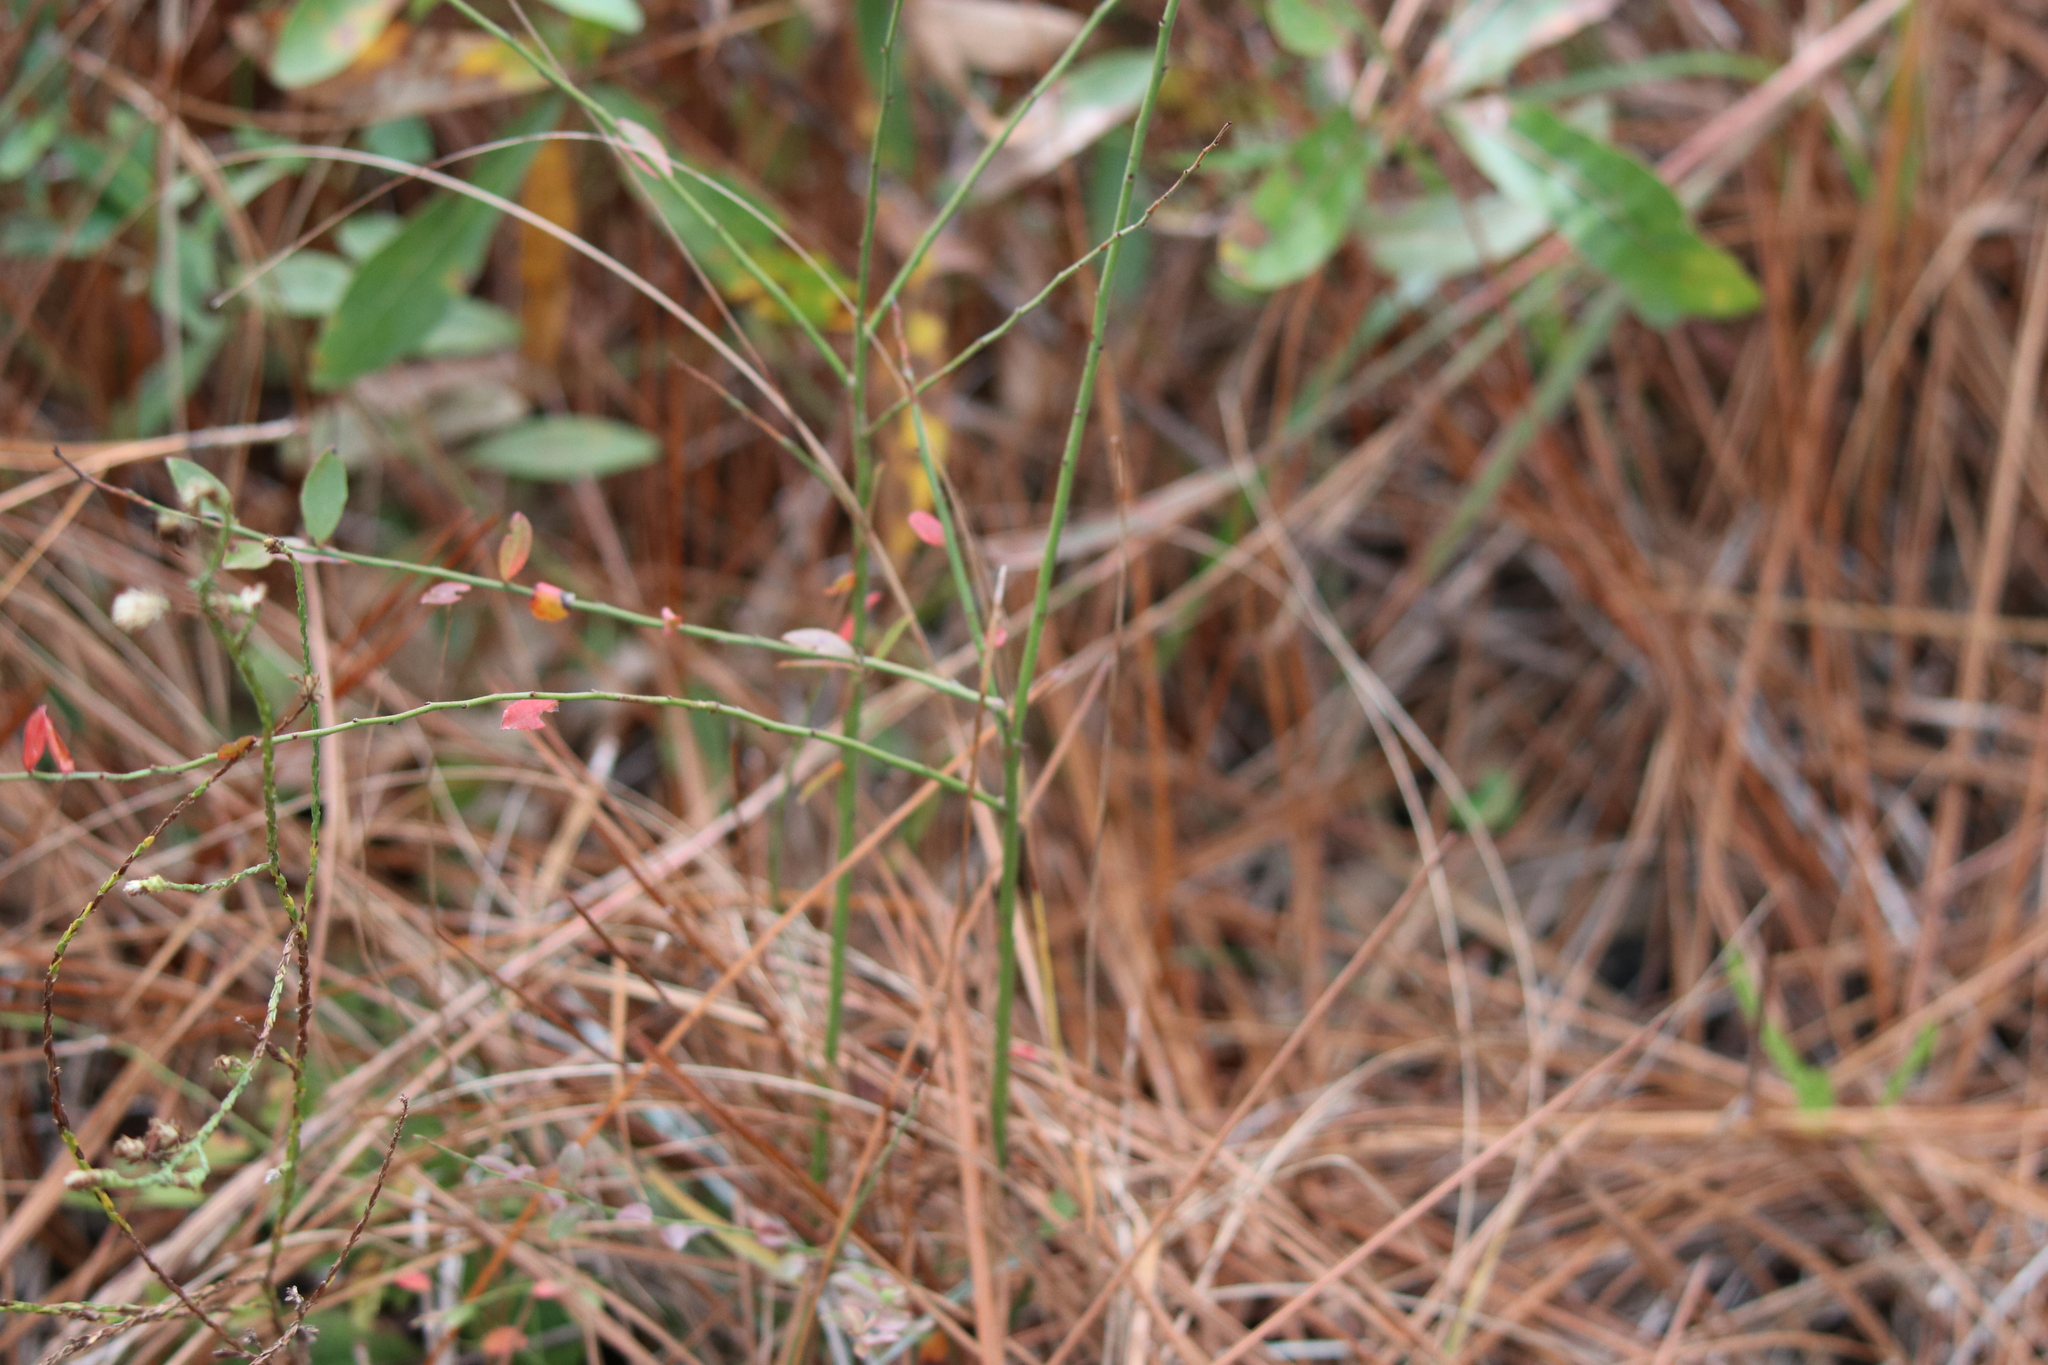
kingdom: Plantae
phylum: Tracheophyta
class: Magnoliopsida
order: Ericales
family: Ericaceae
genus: Vaccinium
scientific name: Vaccinium corymbosum
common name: Blueberry
